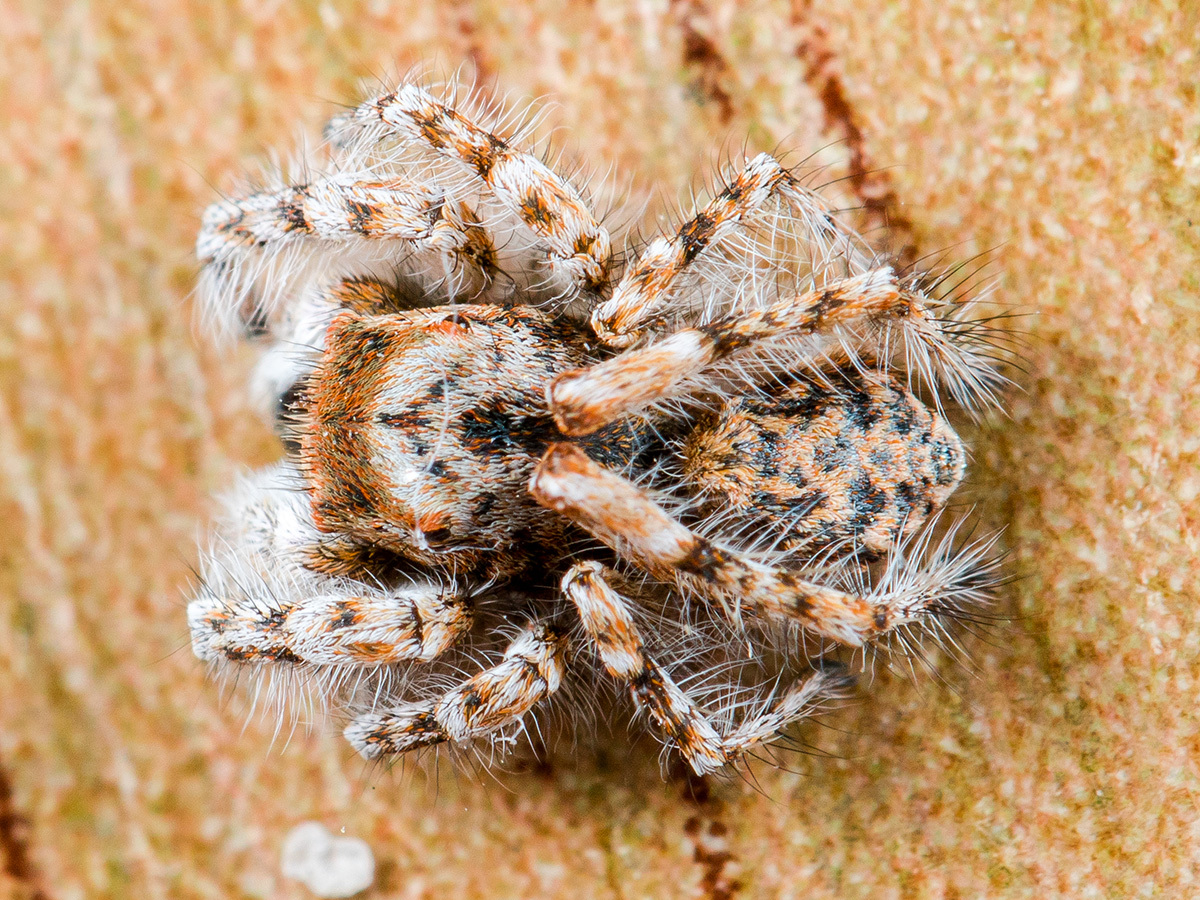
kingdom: Animalia
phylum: Arthropoda
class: Arachnida
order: Araneae
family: Salticidae
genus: Yllenus
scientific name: Yllenus uiguricus
